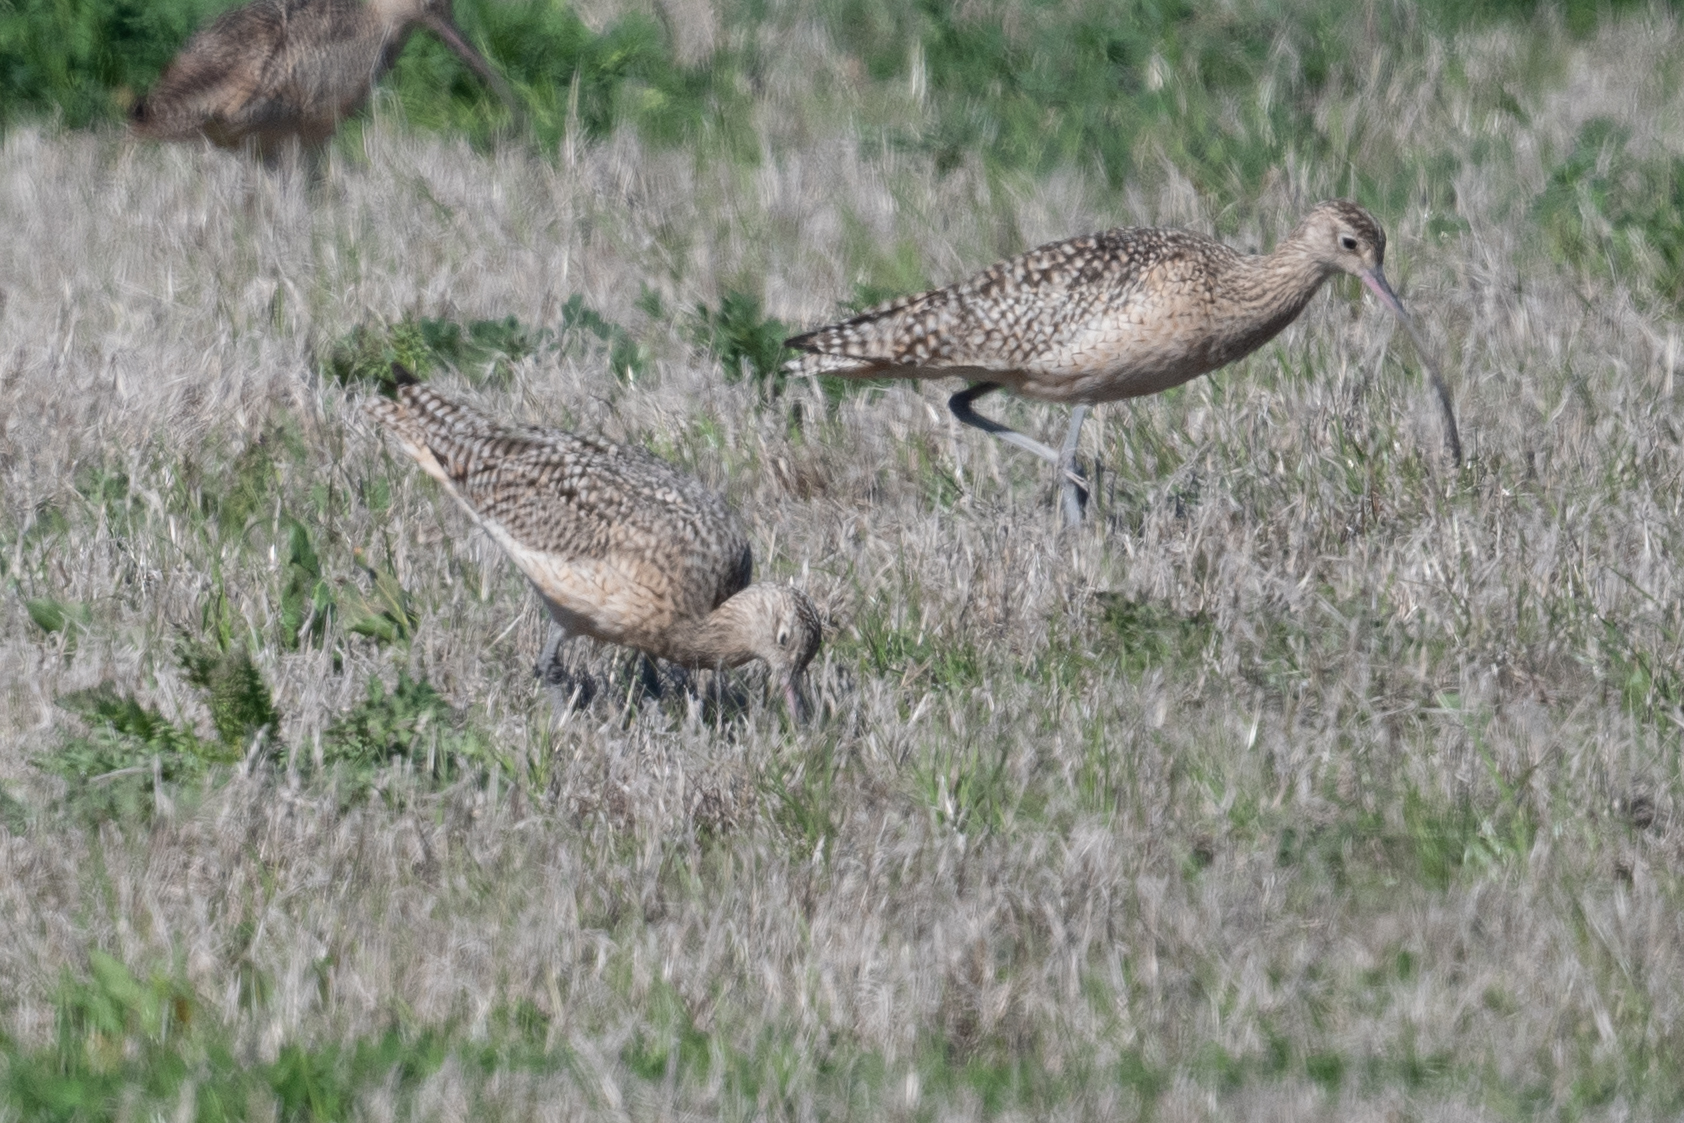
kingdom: Animalia
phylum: Chordata
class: Aves
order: Charadriiformes
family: Scolopacidae
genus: Numenius
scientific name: Numenius americanus
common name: Long-billed curlew
